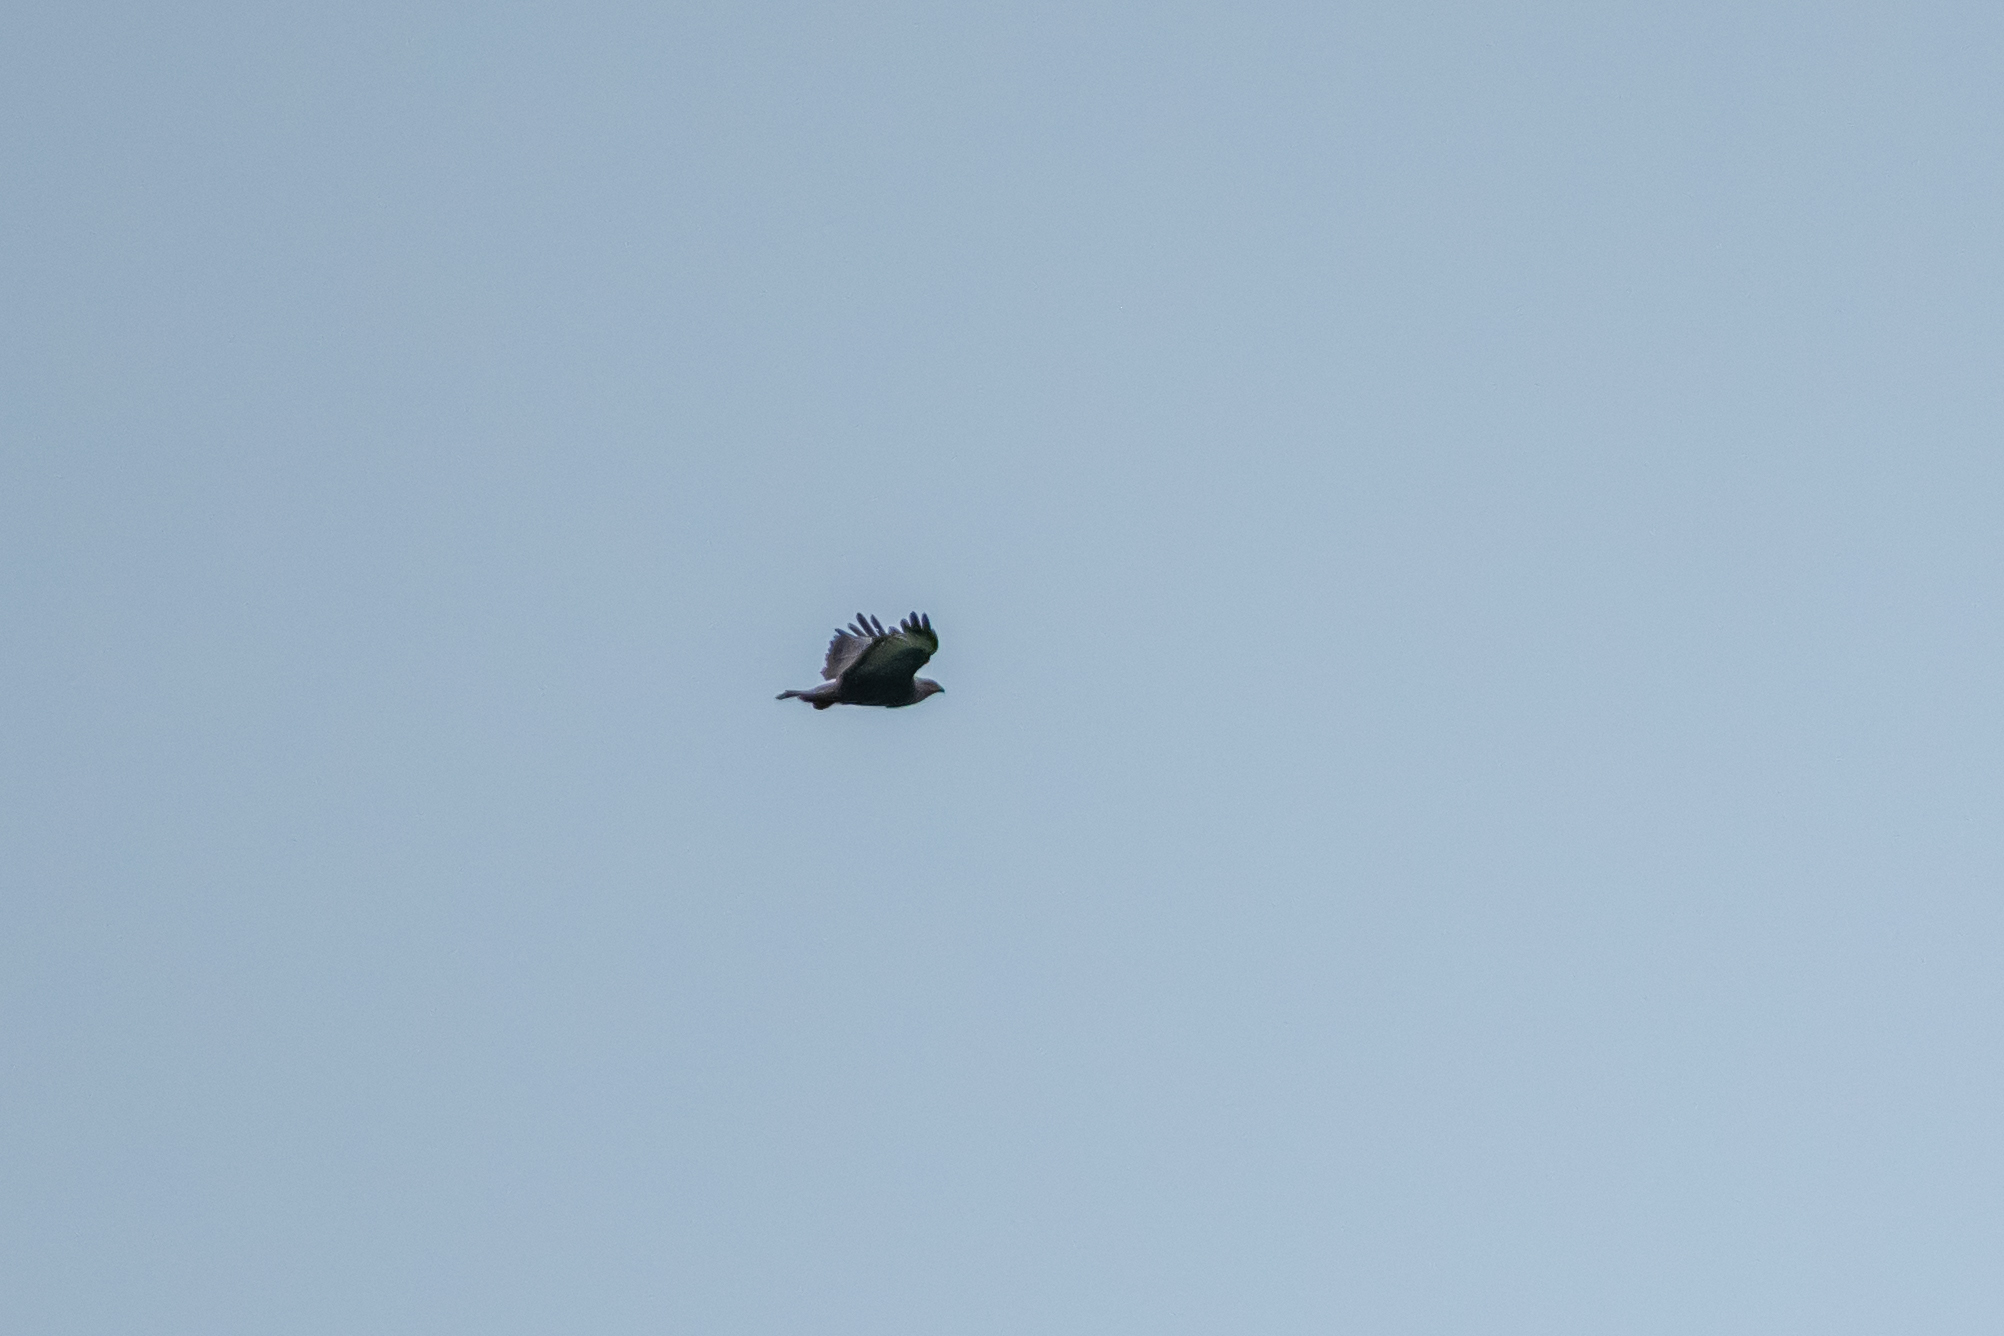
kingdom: Animalia
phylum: Chordata
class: Aves
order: Accipitriformes
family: Accipitridae
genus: Buteo
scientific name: Buteo buteo
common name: Common buzzard
